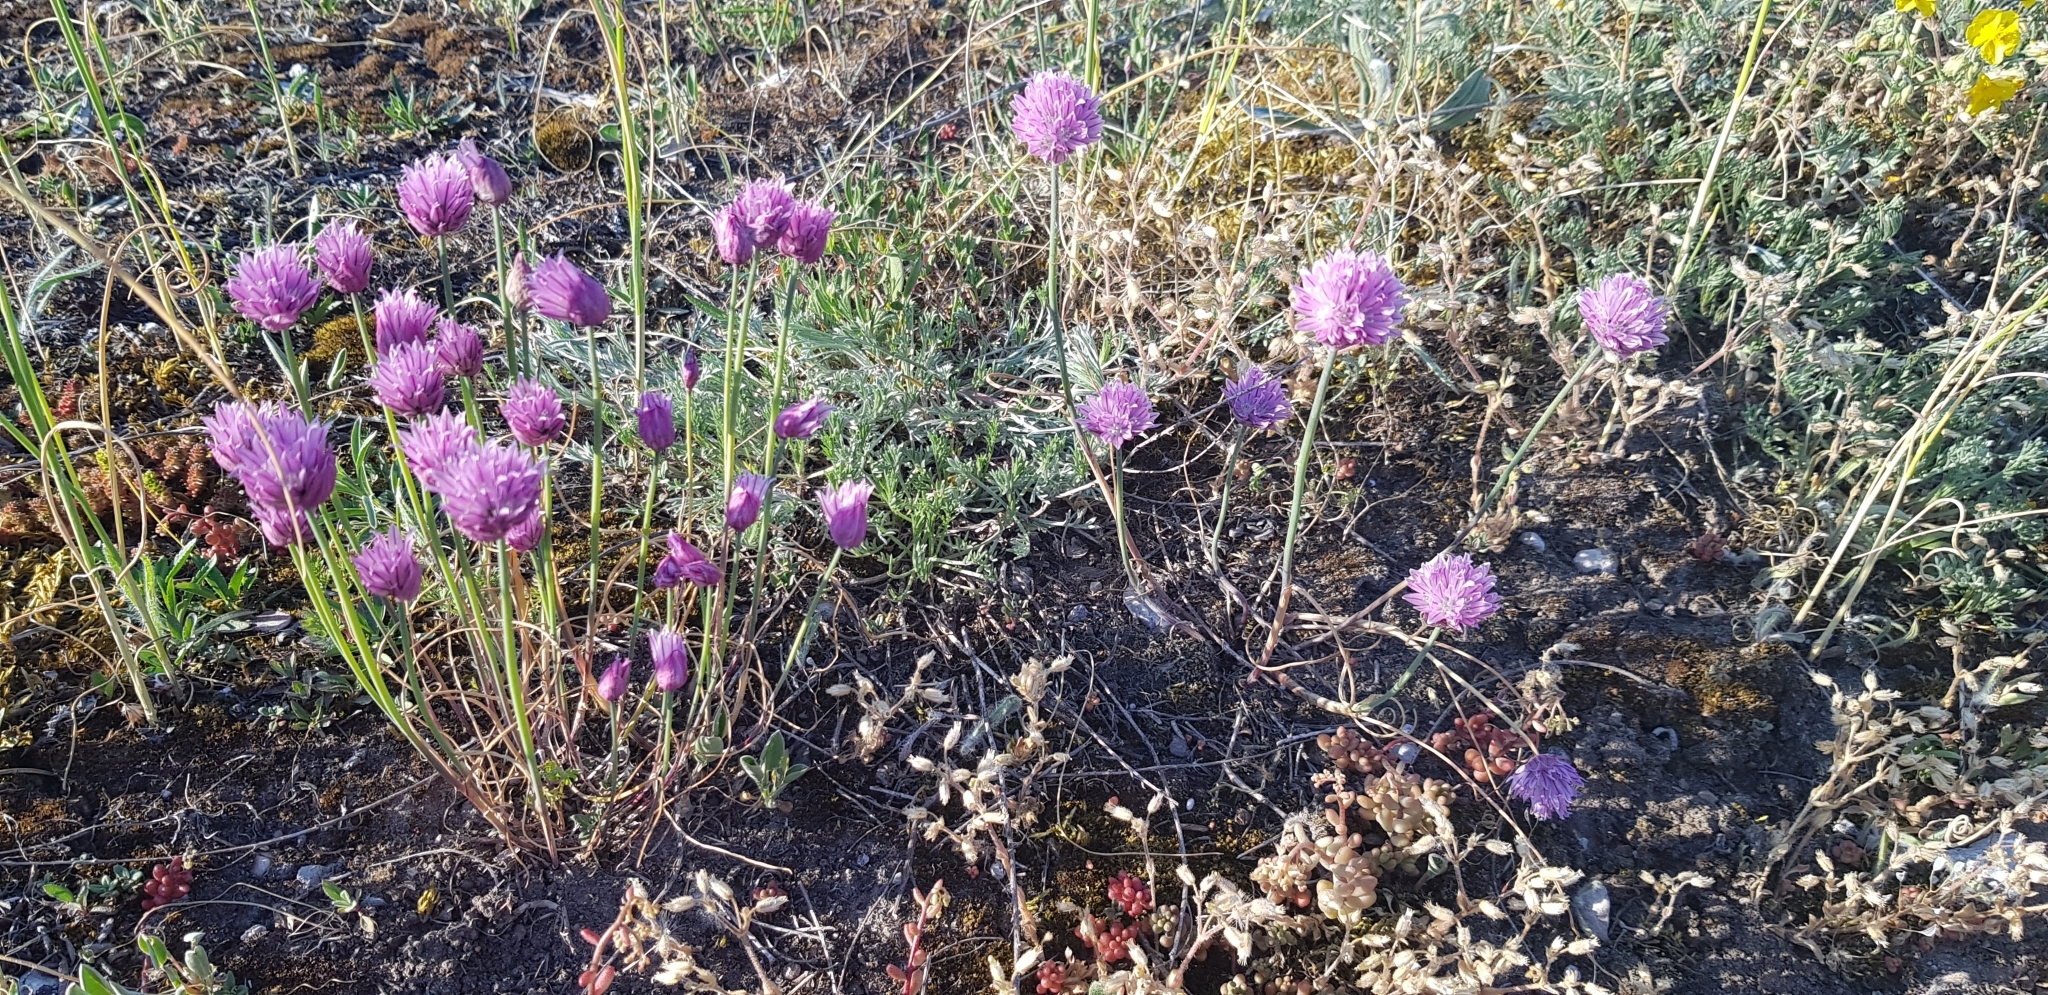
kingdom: Plantae
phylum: Tracheophyta
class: Liliopsida
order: Asparagales
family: Amaryllidaceae
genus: Allium
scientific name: Allium schoenoprasum
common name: Chives
